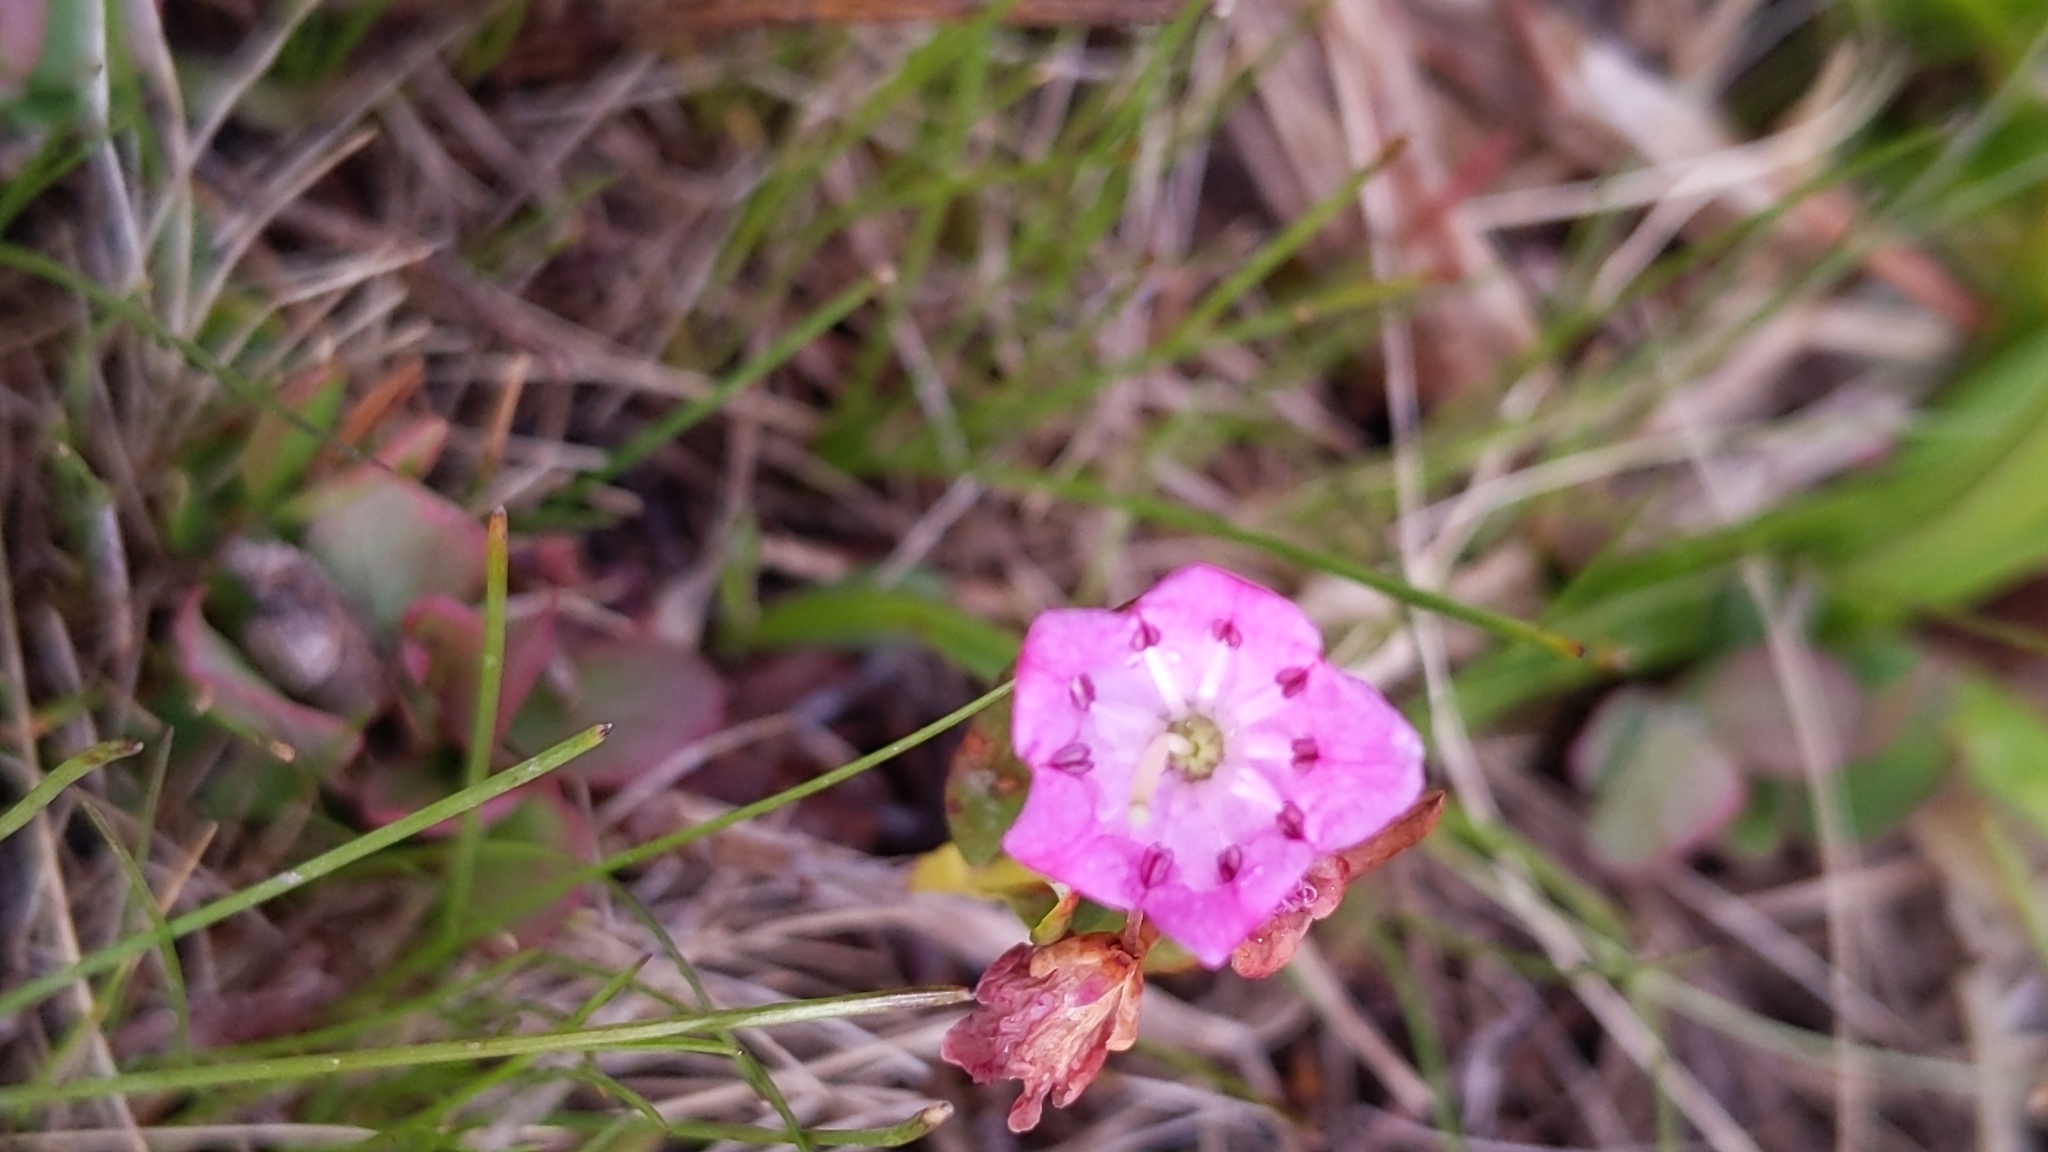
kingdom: Plantae
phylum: Tracheophyta
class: Magnoliopsida
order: Ericales
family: Ericaceae
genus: Kalmia
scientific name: Kalmia microphylla
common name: Alpine bog laurel
